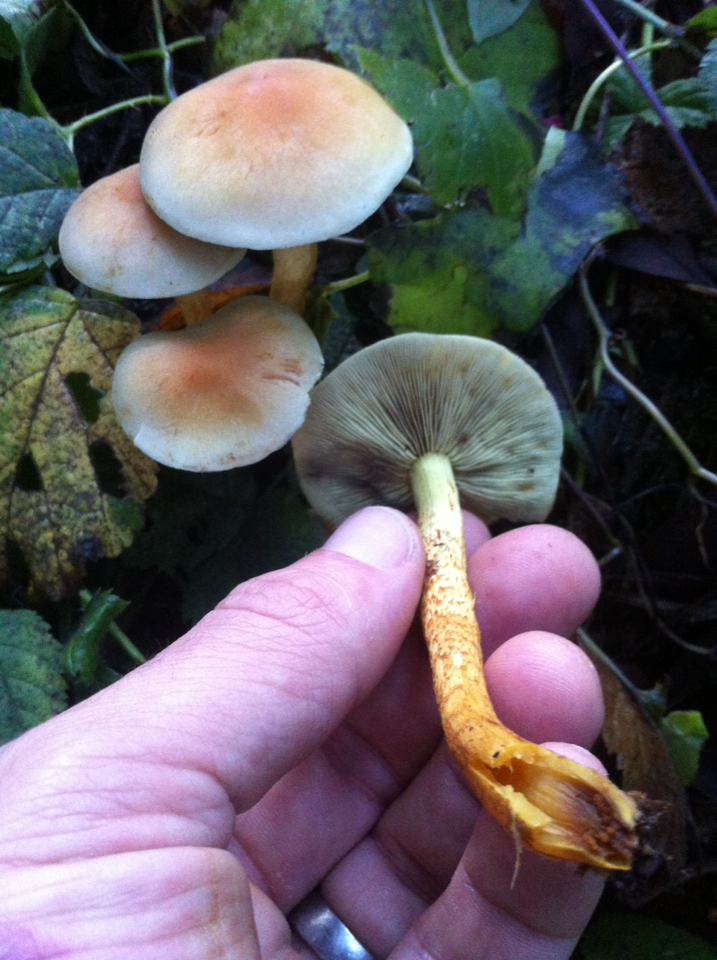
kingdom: Fungi
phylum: Basidiomycota
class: Agaricomycetes
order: Agaricales
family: Strophariaceae
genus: Hypholoma
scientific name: Hypholoma fasciculare
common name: Sulphur tuft
